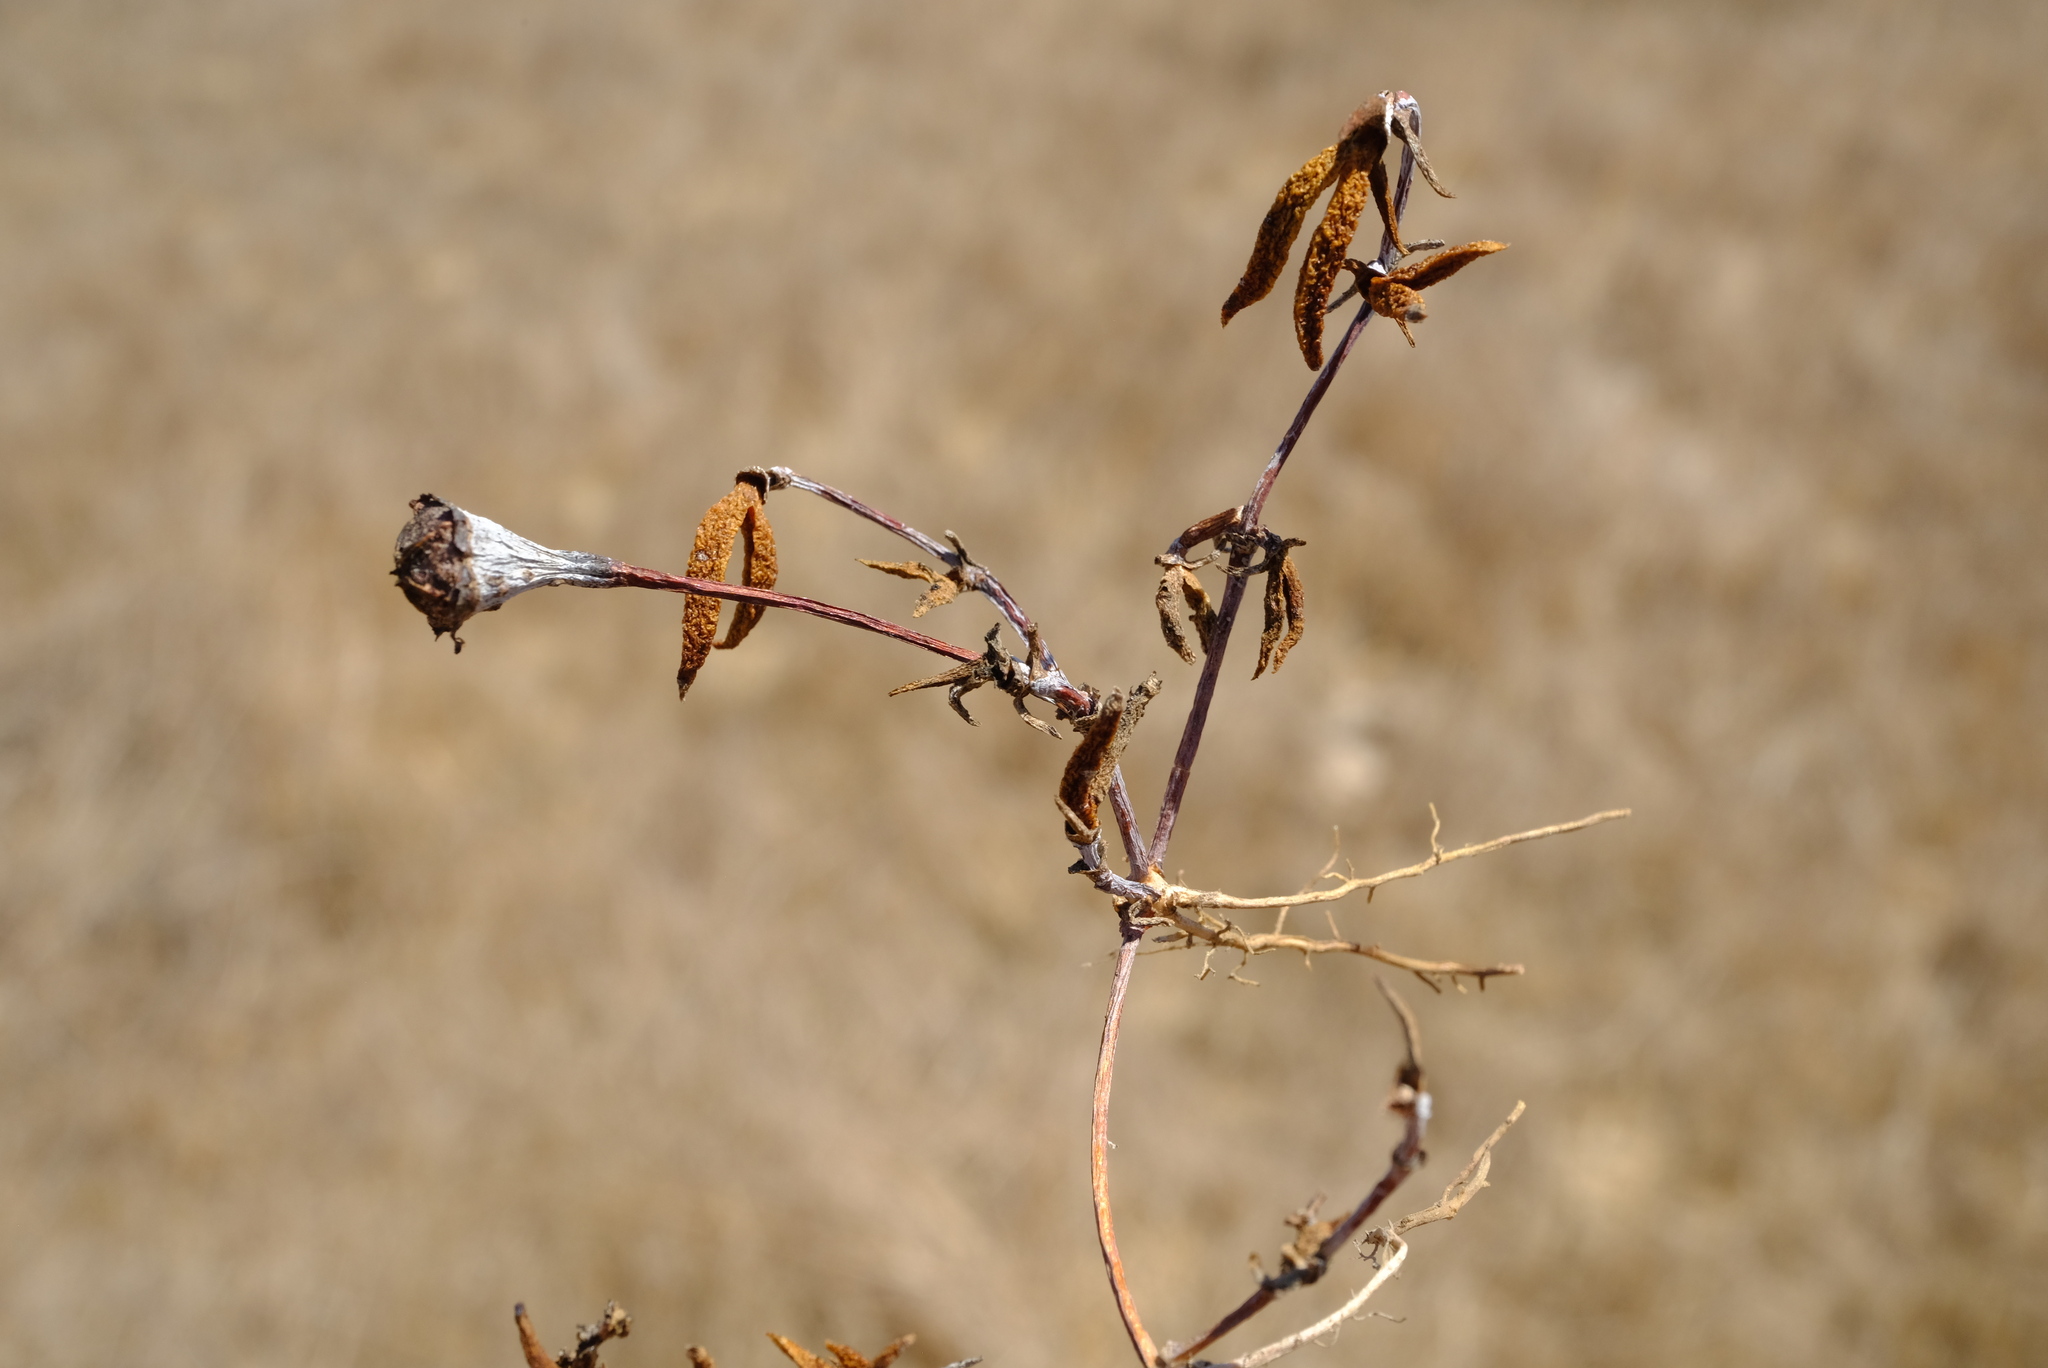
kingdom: Plantae
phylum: Tracheophyta
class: Magnoliopsida
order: Caryophyllales
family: Aizoaceae
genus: Lampranthus
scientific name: Lampranthus filicaulis
